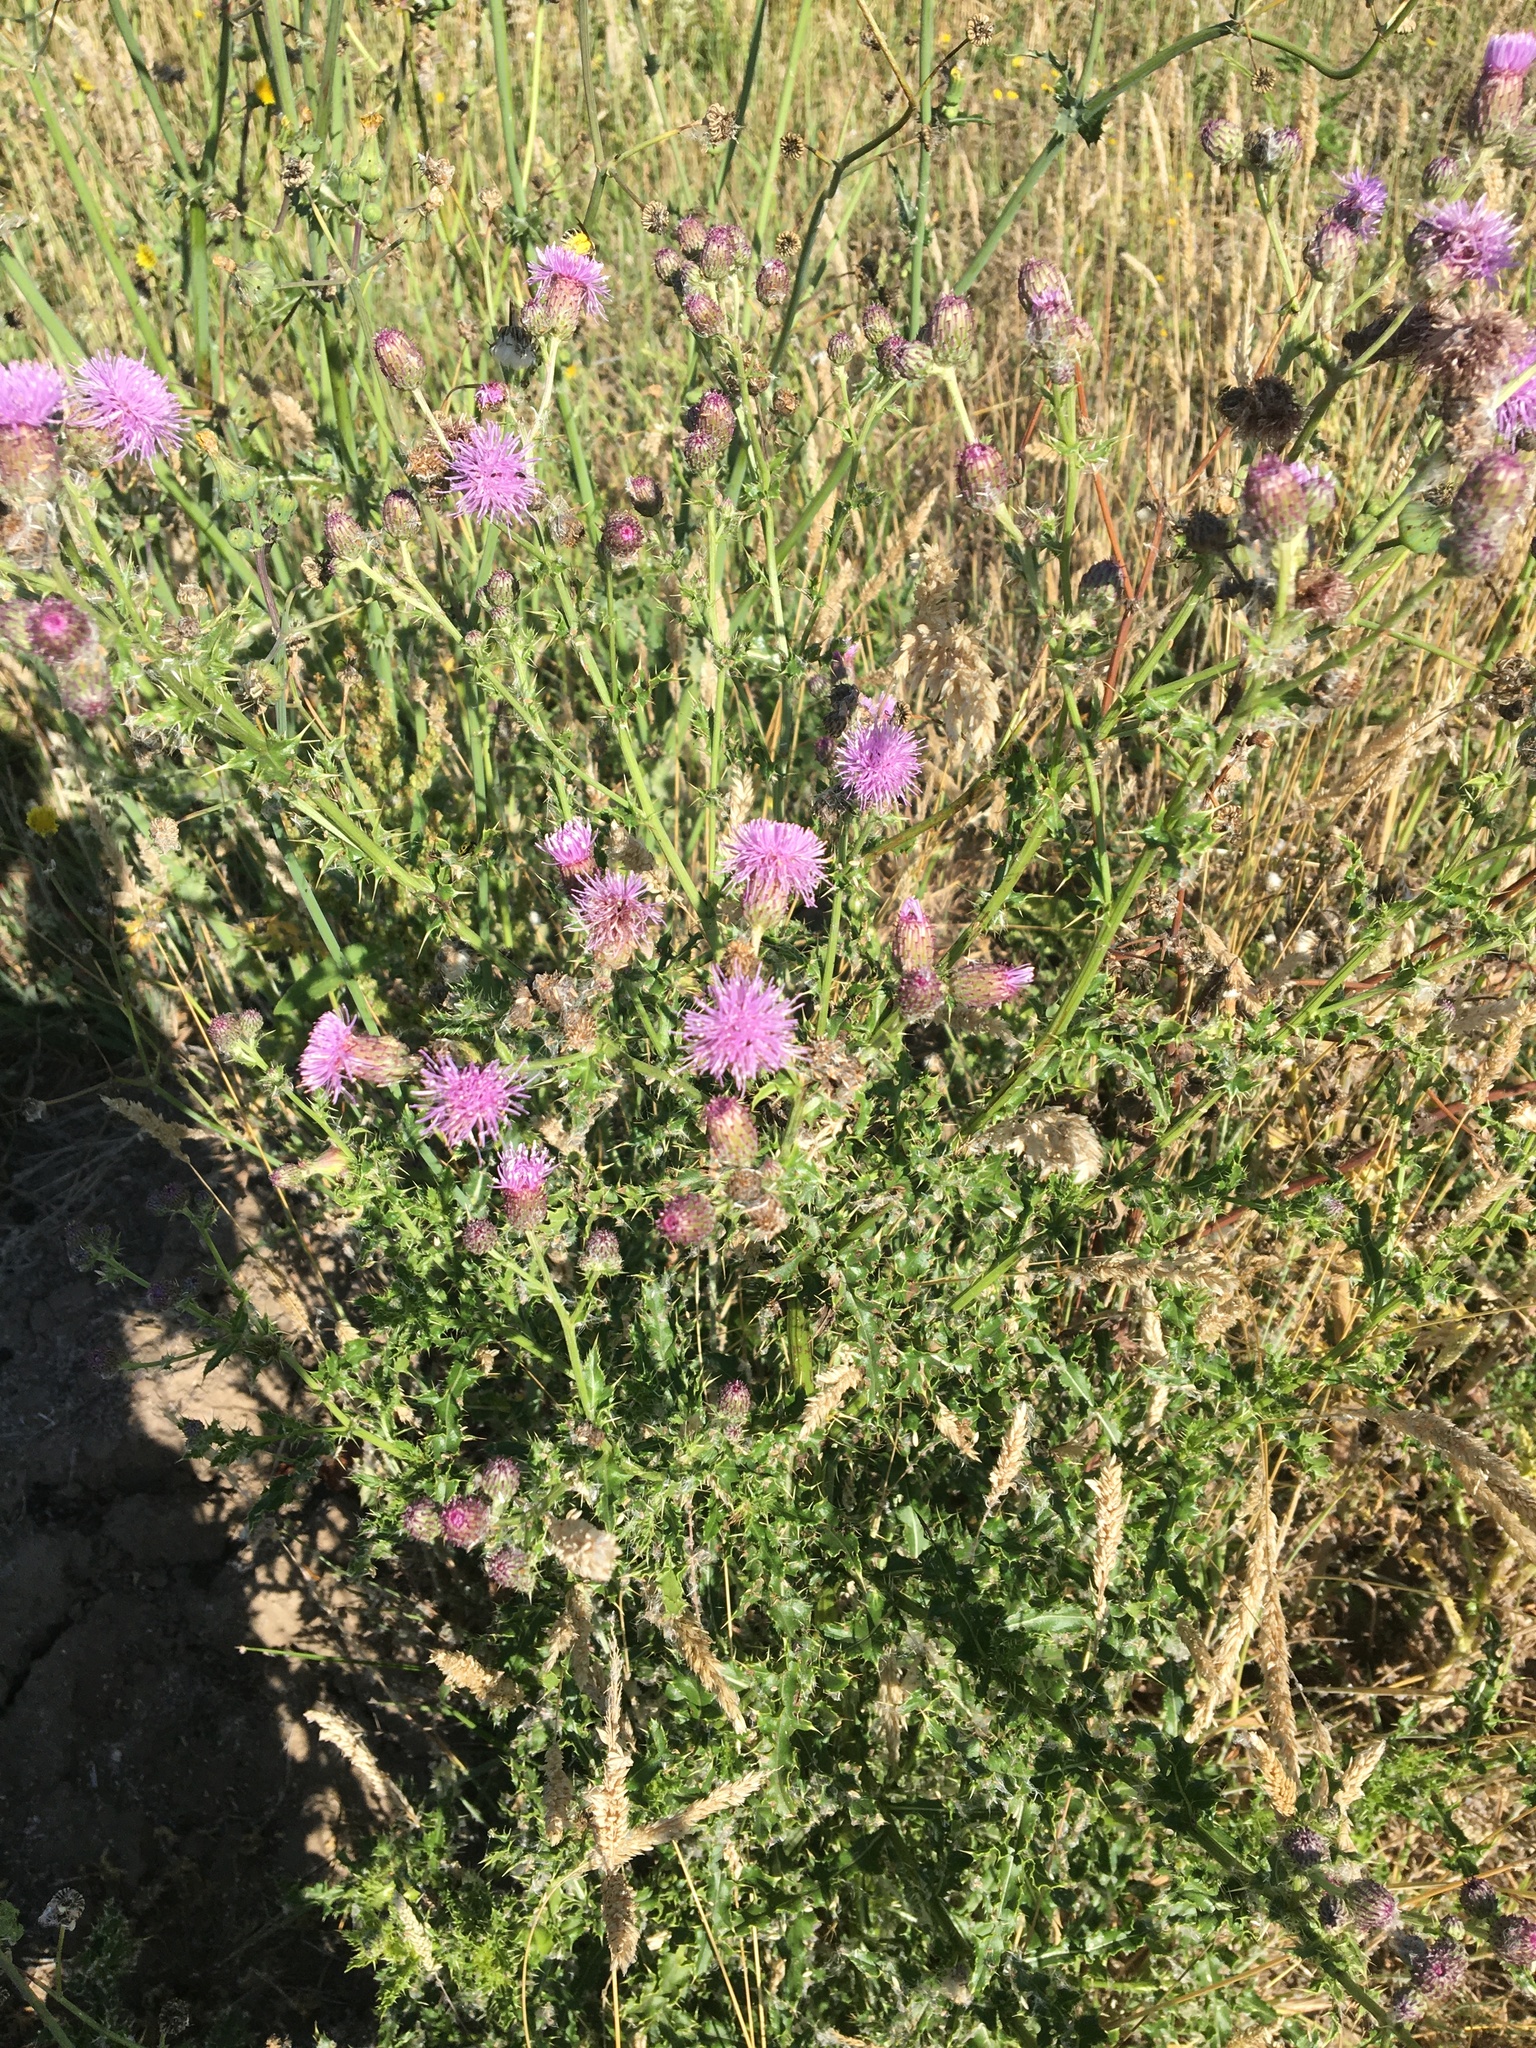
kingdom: Plantae
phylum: Tracheophyta
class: Magnoliopsida
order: Asterales
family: Asteraceae
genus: Cirsium
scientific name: Cirsium arvense
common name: Creeping thistle
